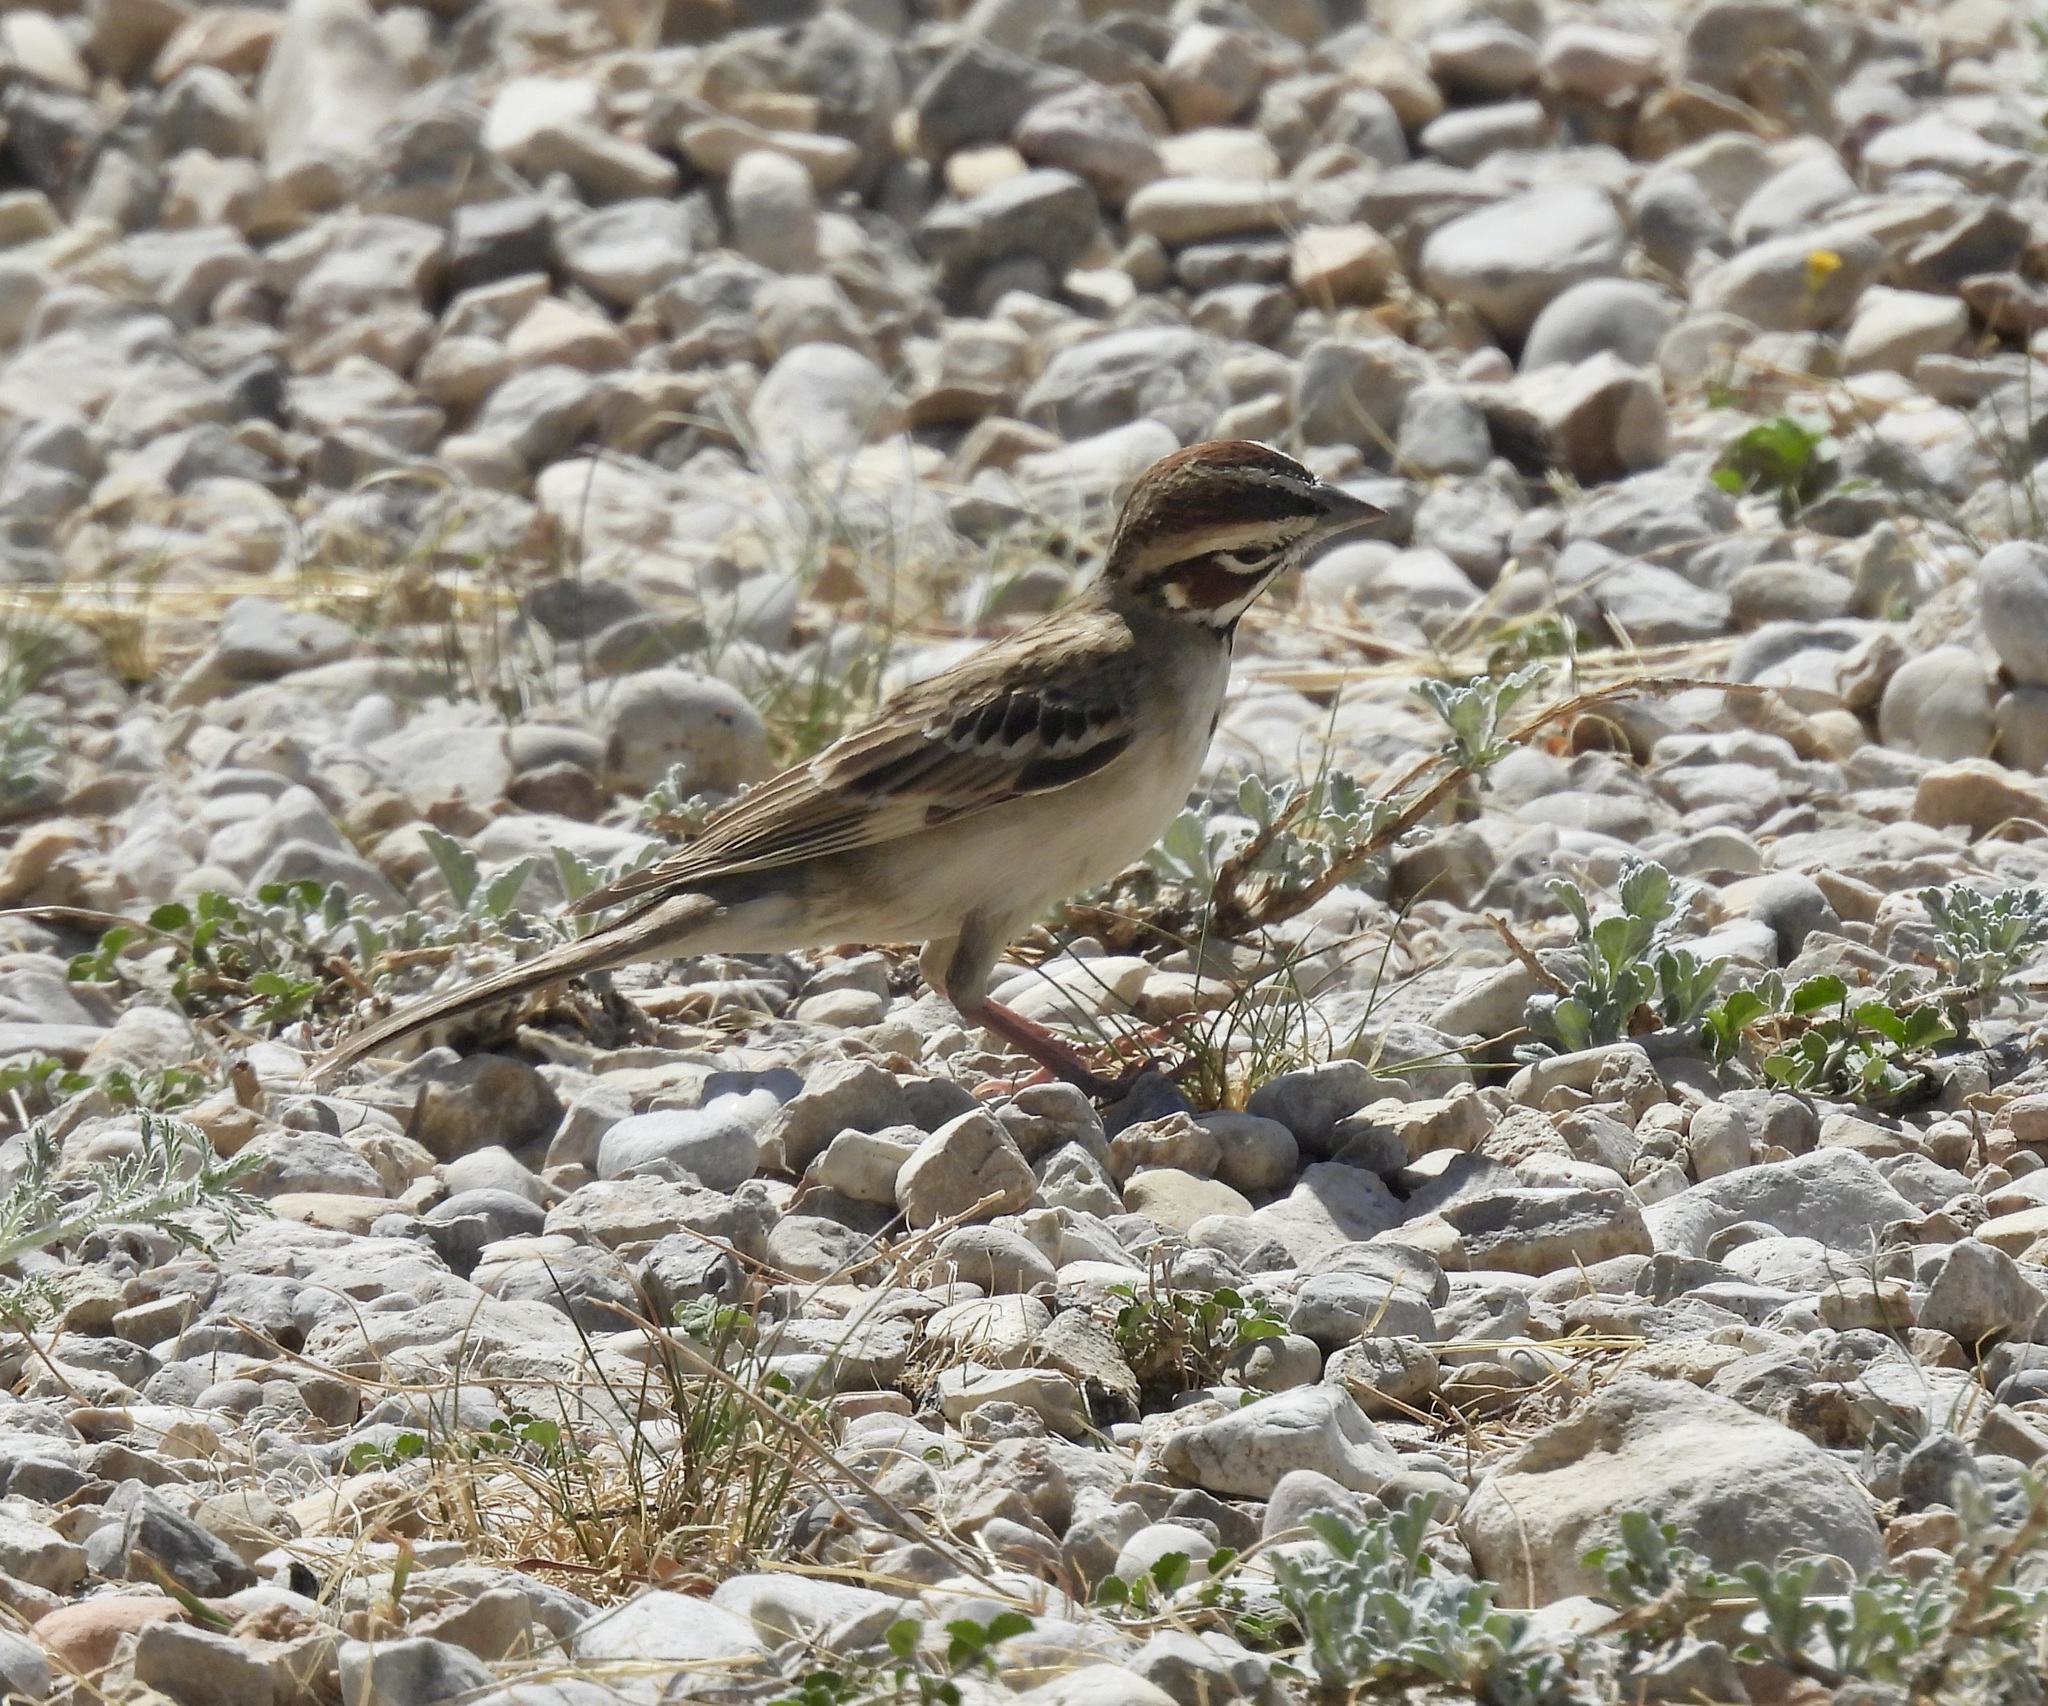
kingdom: Animalia
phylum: Chordata
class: Aves
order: Passeriformes
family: Passerellidae
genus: Chondestes
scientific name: Chondestes grammacus
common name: Lark sparrow
